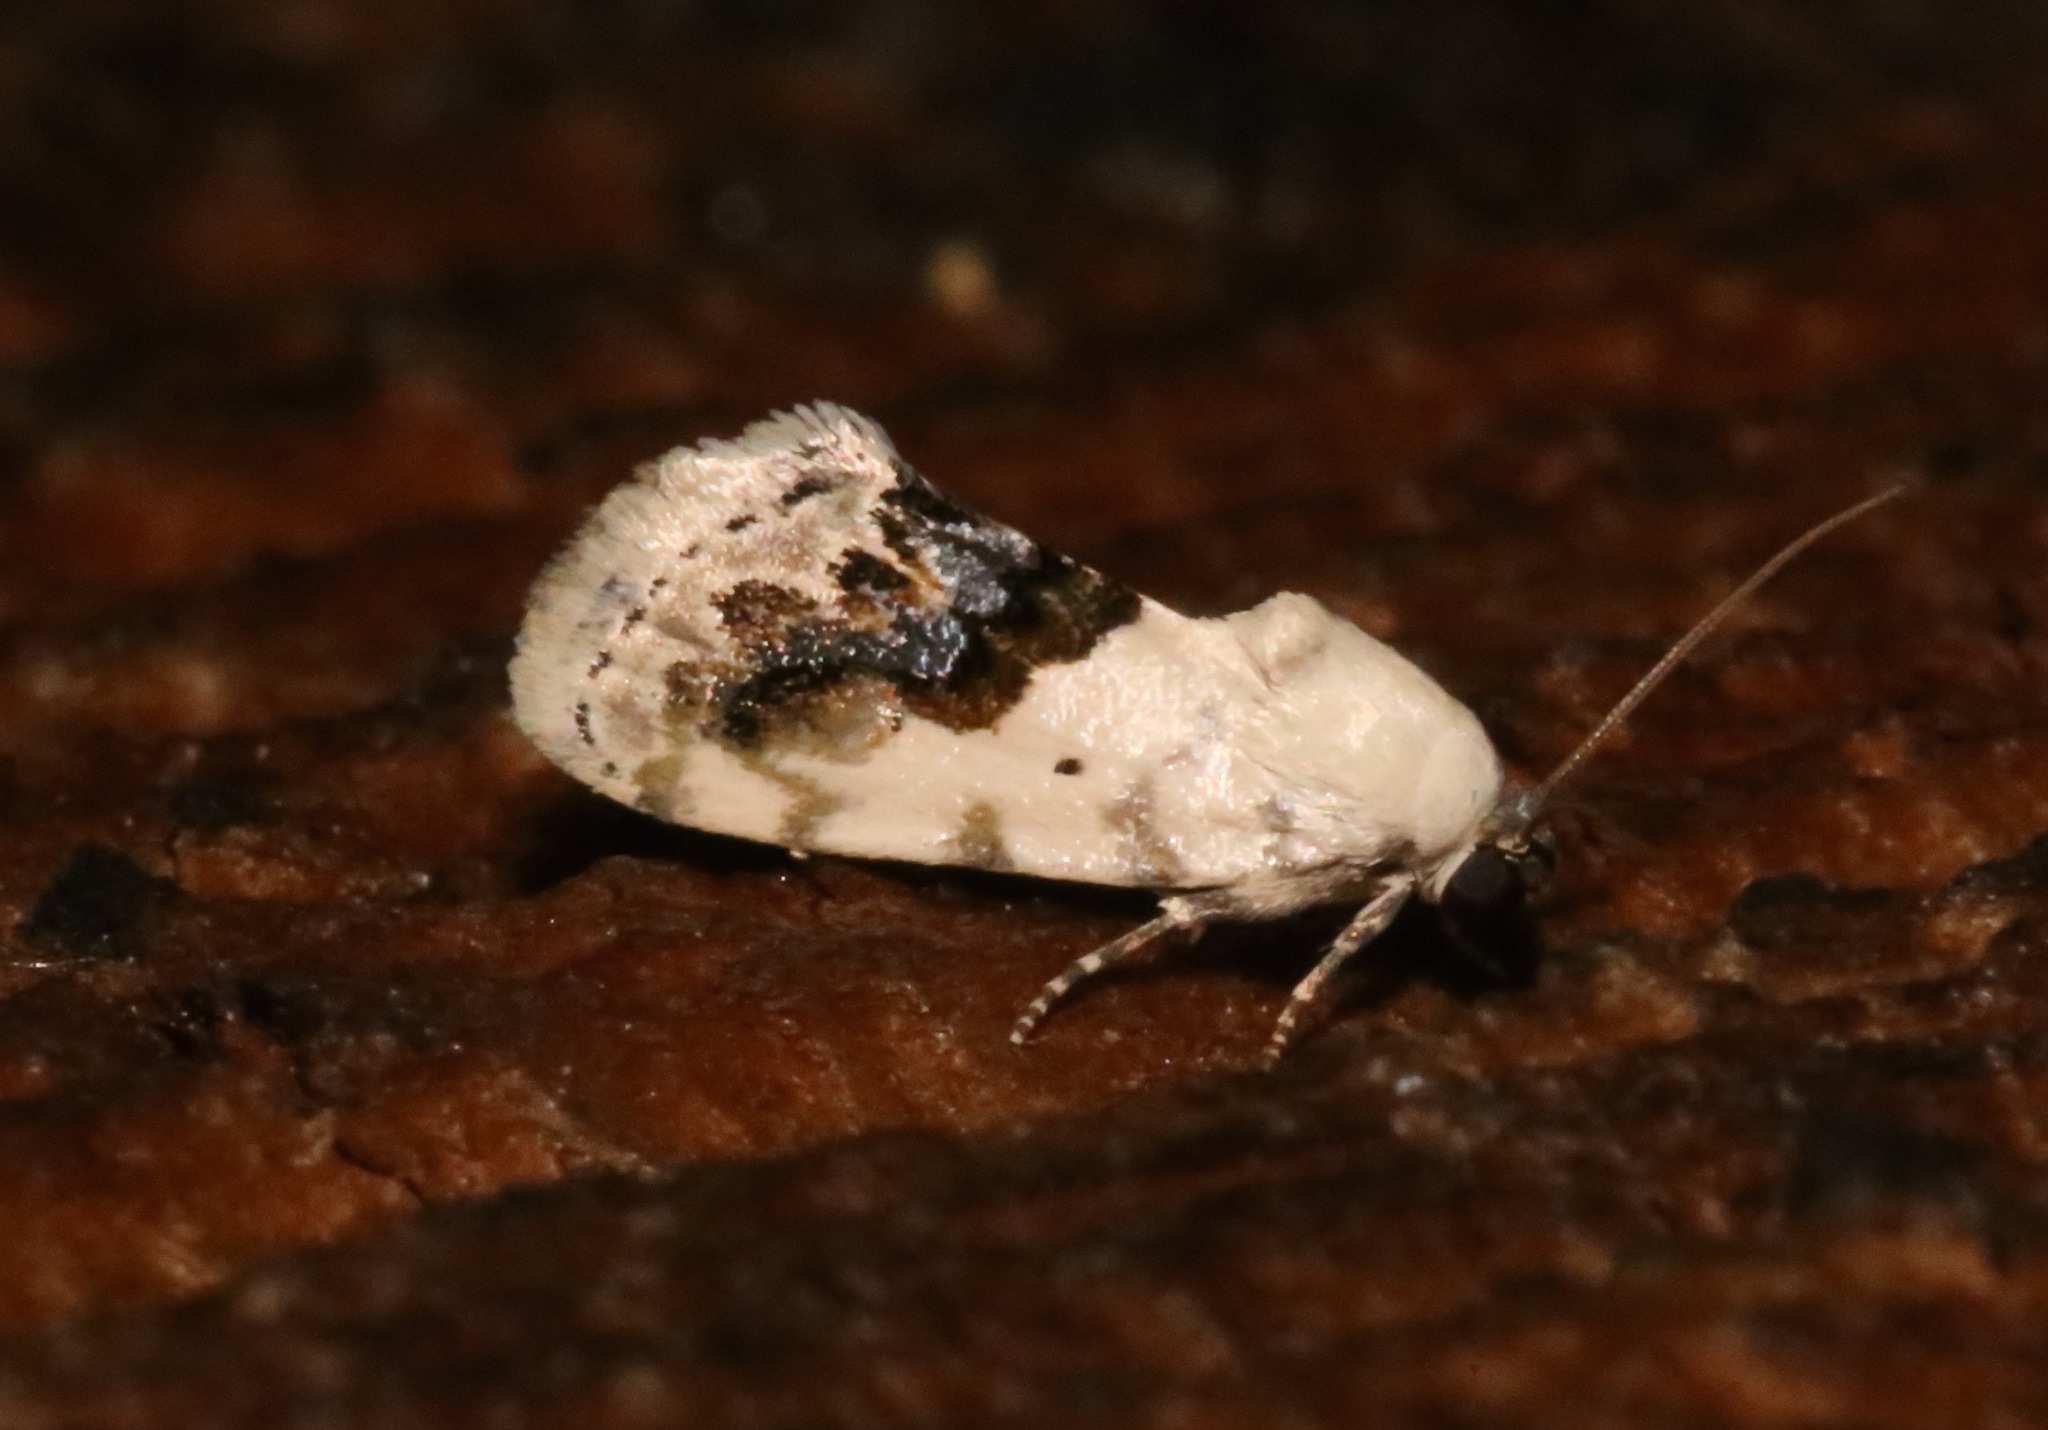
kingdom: Animalia
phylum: Arthropoda
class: Insecta
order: Lepidoptera
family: Noctuidae
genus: Acontia
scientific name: Acontia erastrioides
